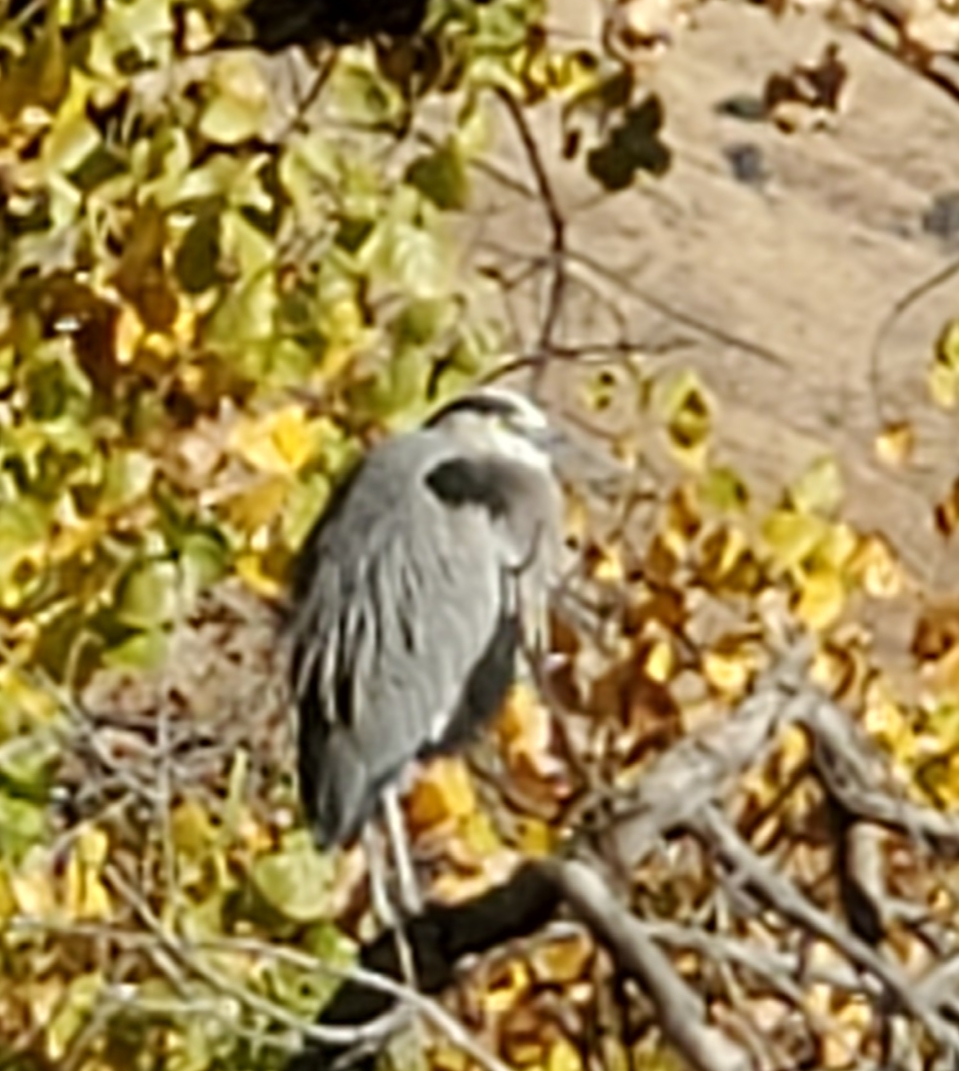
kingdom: Animalia
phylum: Chordata
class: Aves
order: Pelecaniformes
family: Ardeidae
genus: Ardea
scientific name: Ardea herodias
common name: Great blue heron
